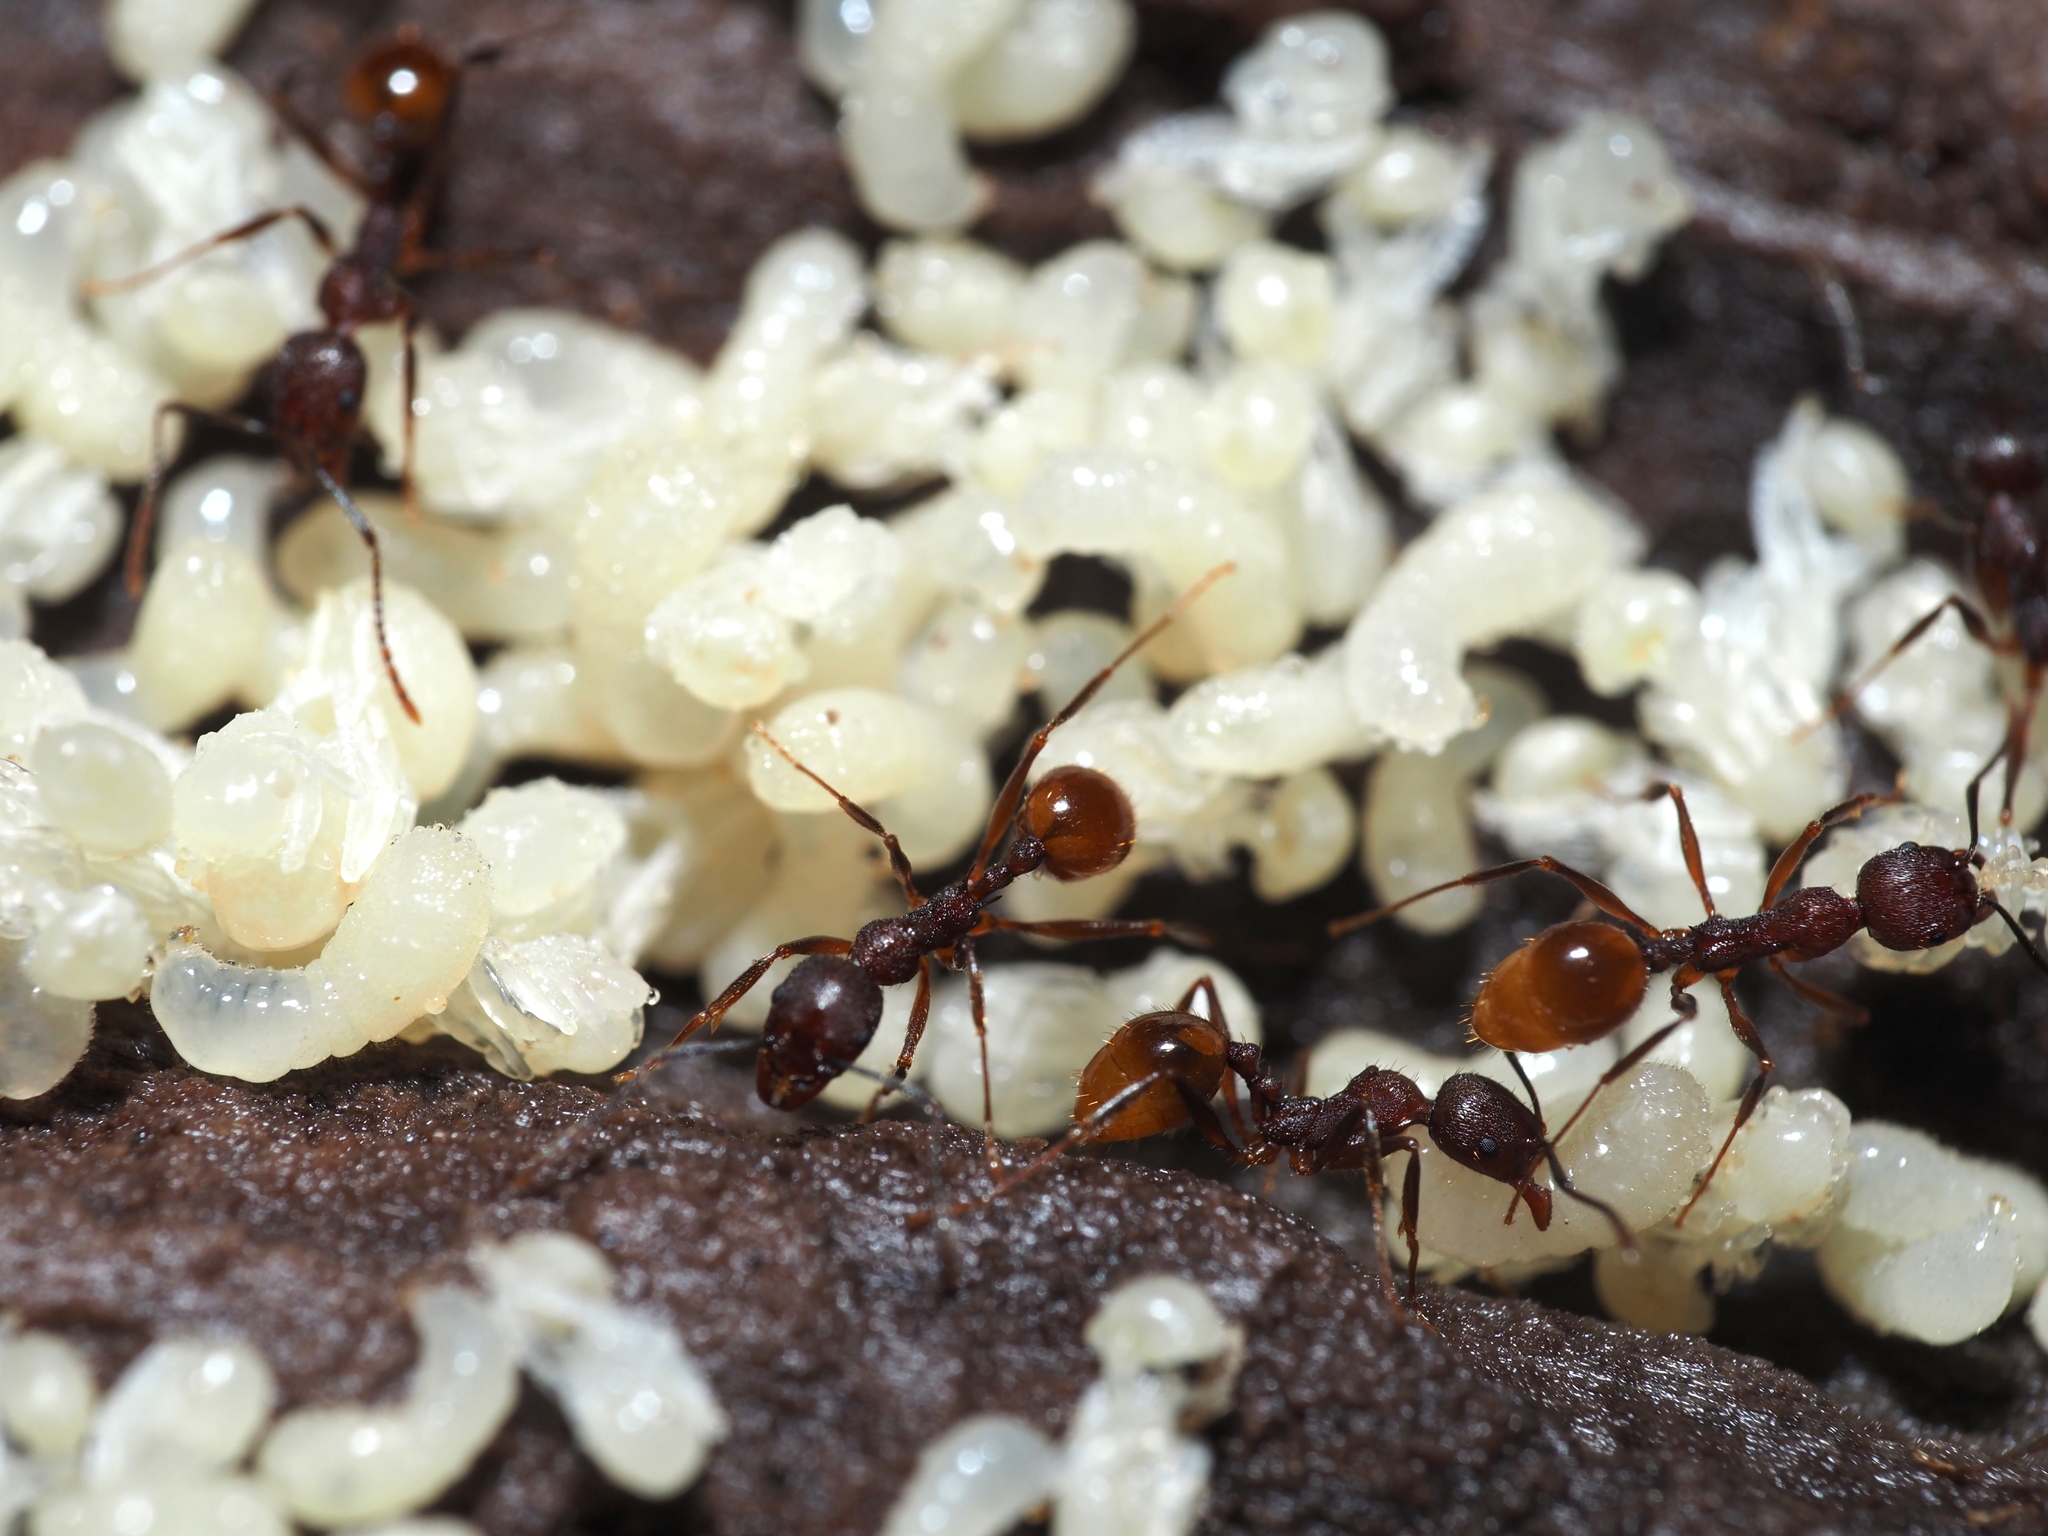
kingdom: Animalia
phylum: Arthropoda
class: Insecta
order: Hymenoptera
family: Formicidae
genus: Aphaenogaster
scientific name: Aphaenogaster fulva
